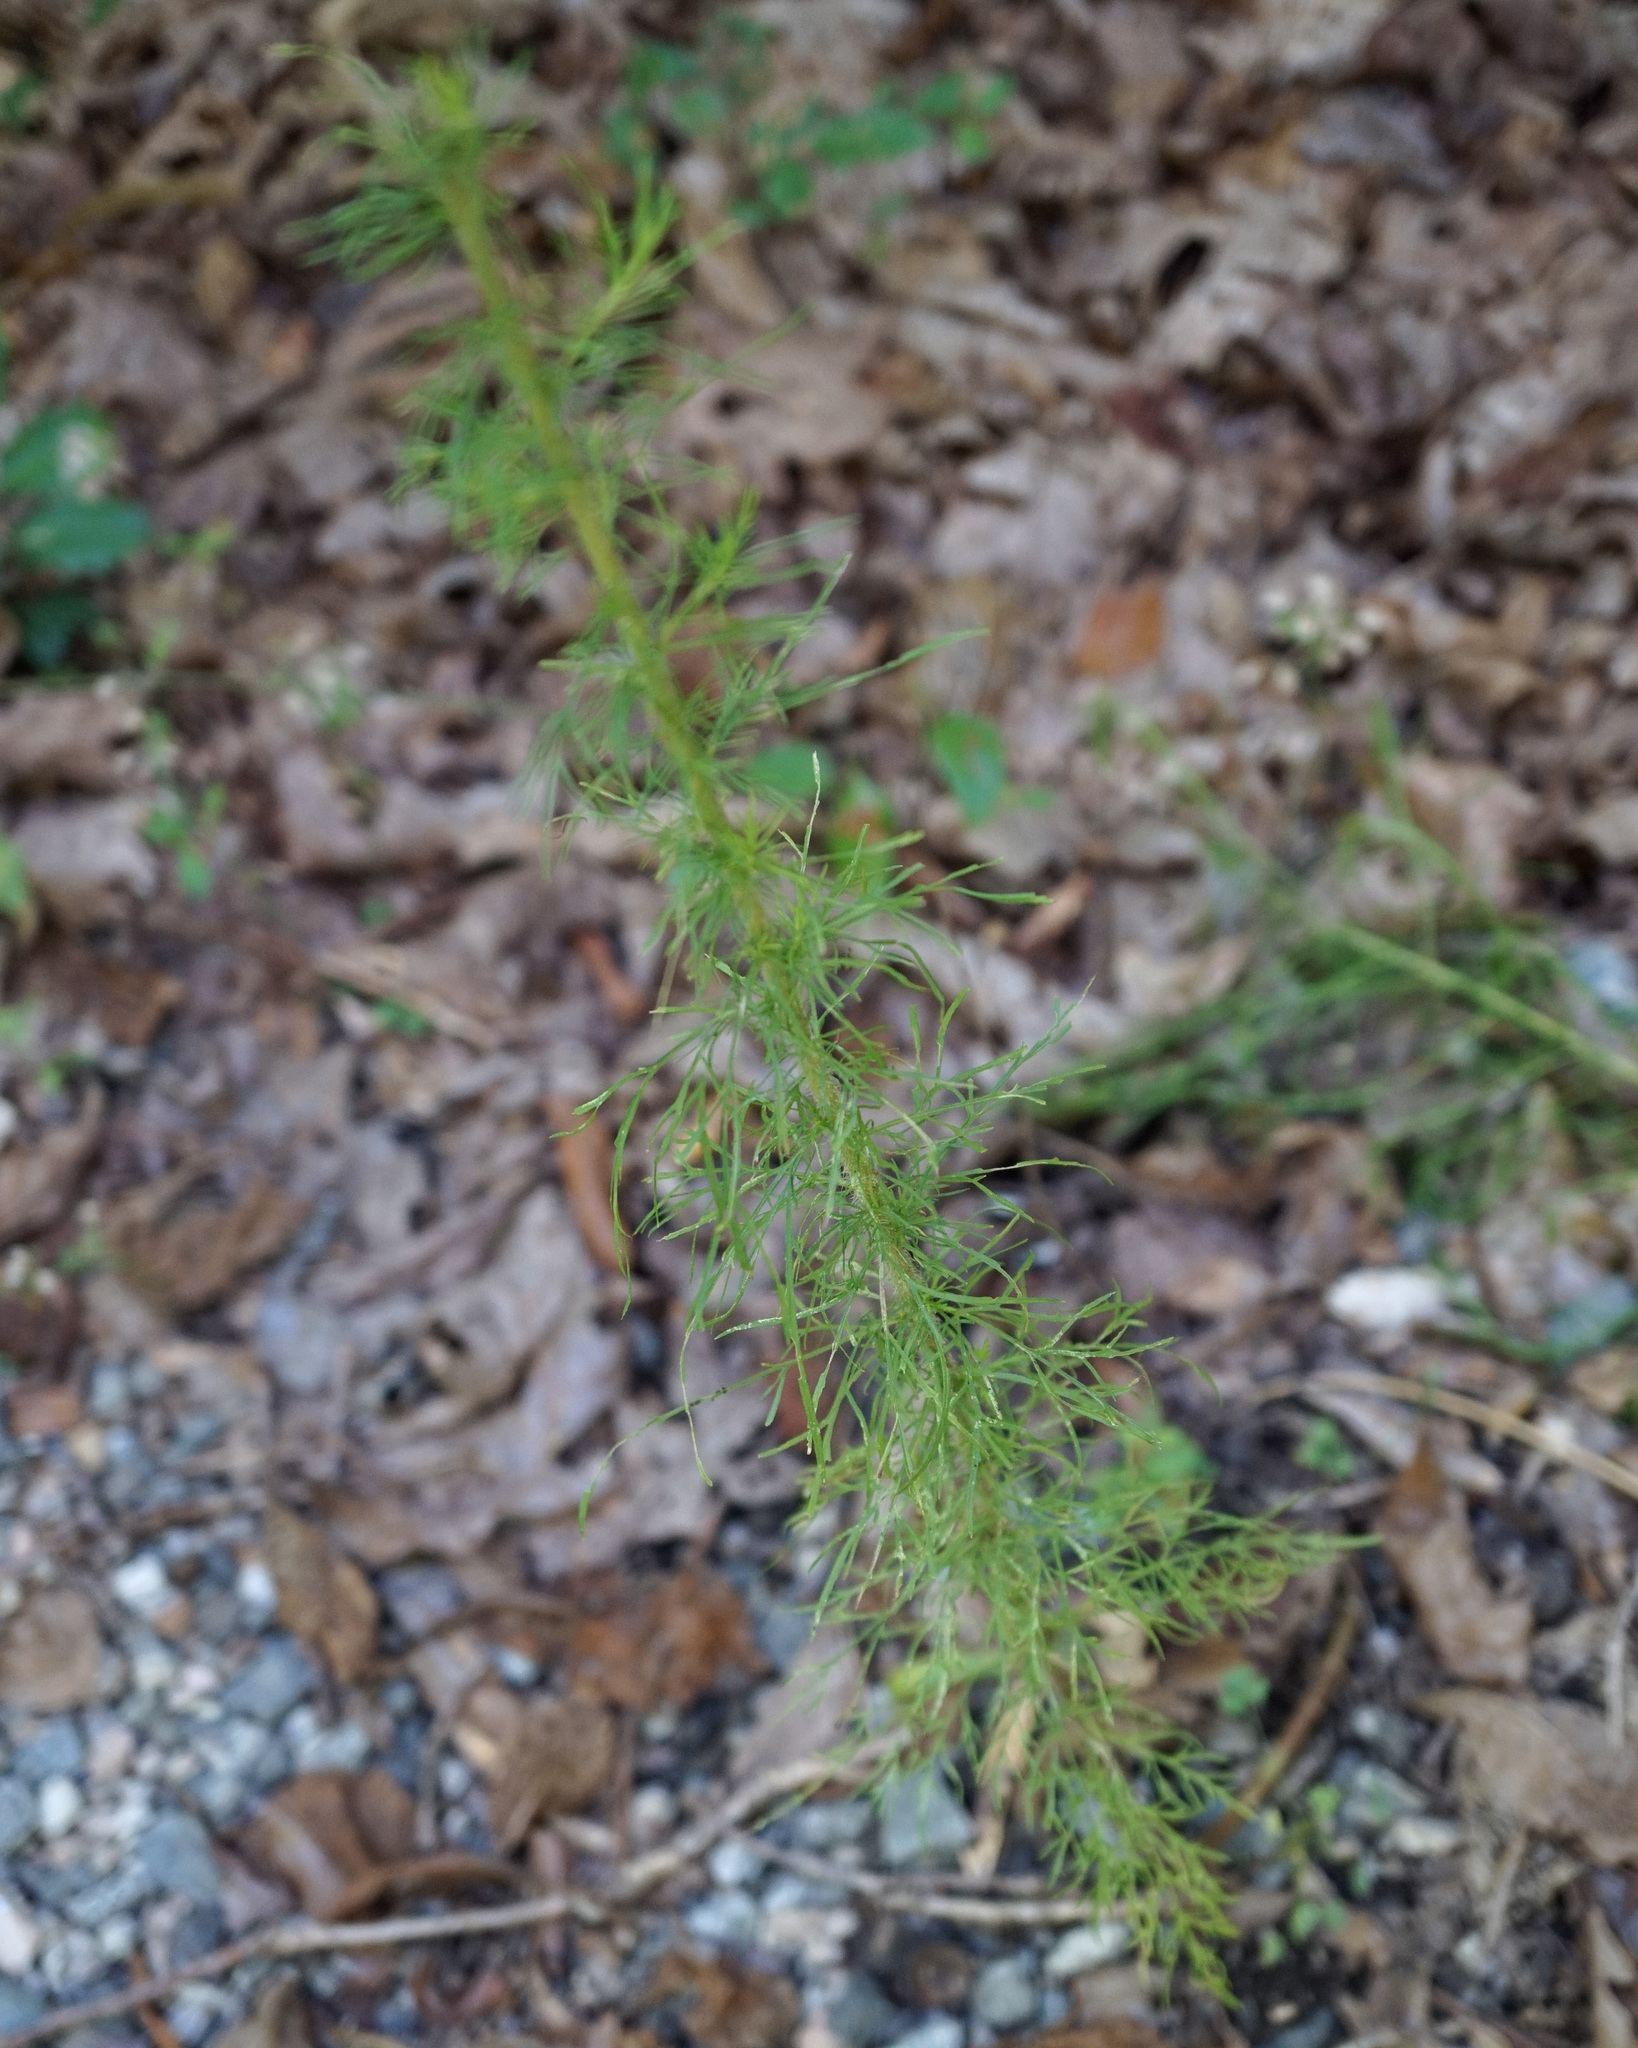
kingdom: Plantae
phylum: Tracheophyta
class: Magnoliopsida
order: Asterales
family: Asteraceae
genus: Eupatorium
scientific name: Eupatorium capillifolium
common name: Dog-fennel
